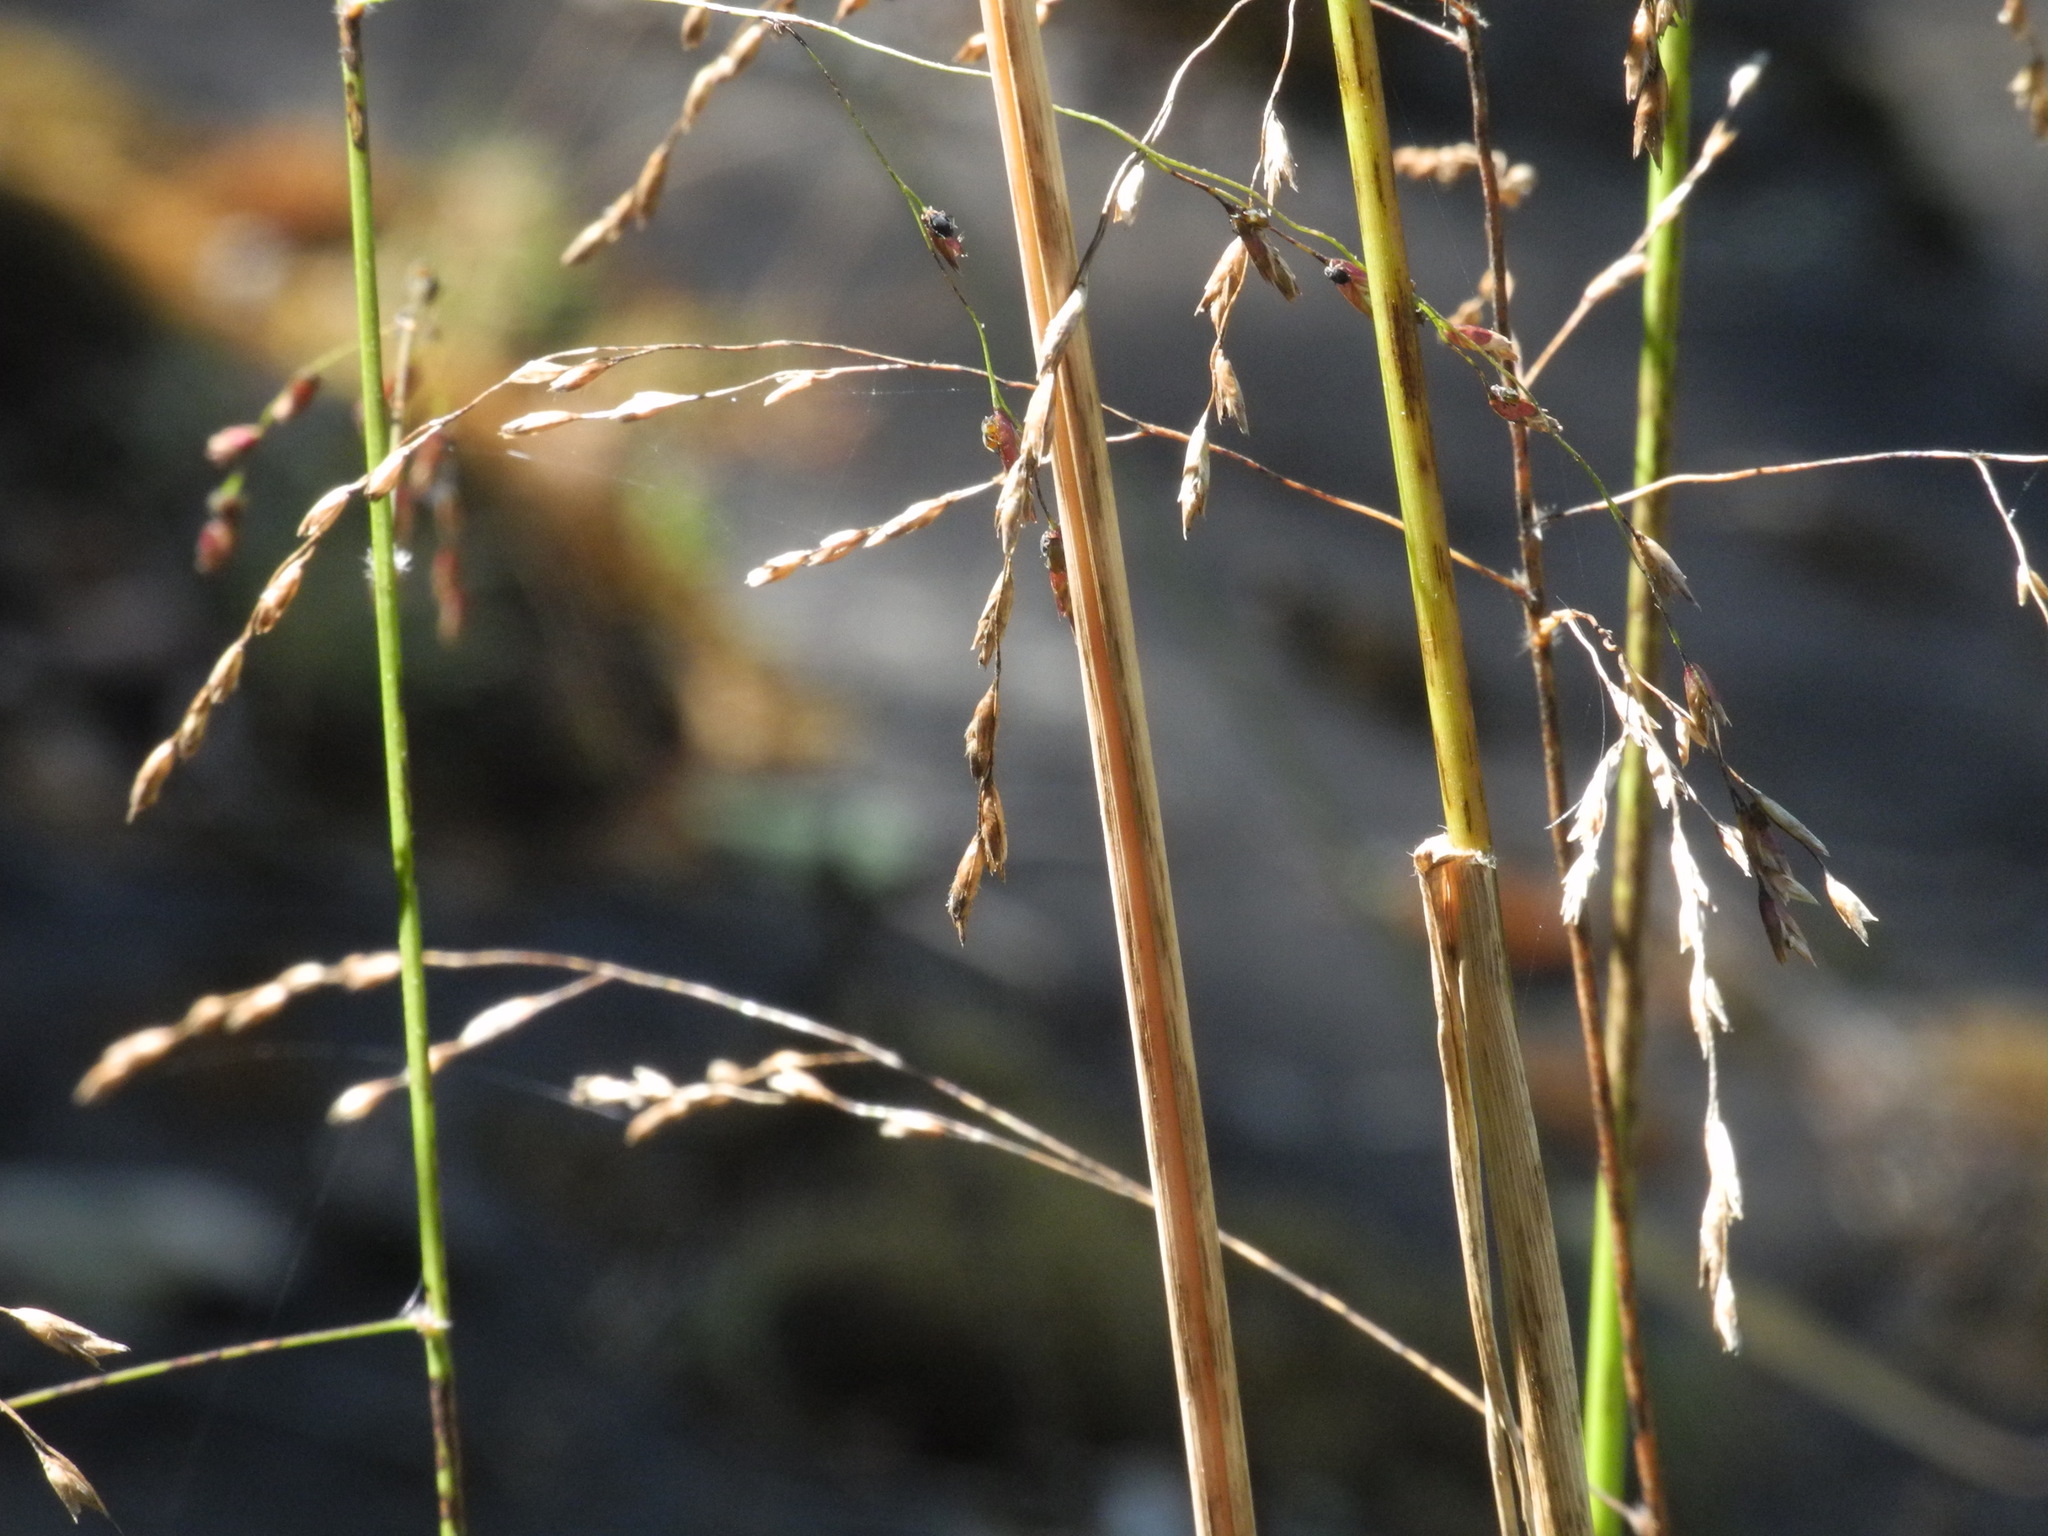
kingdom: Plantae
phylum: Tracheophyta
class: Liliopsida
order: Poales
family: Poaceae
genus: Tridens
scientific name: Tridens flavus
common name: Purpletop
